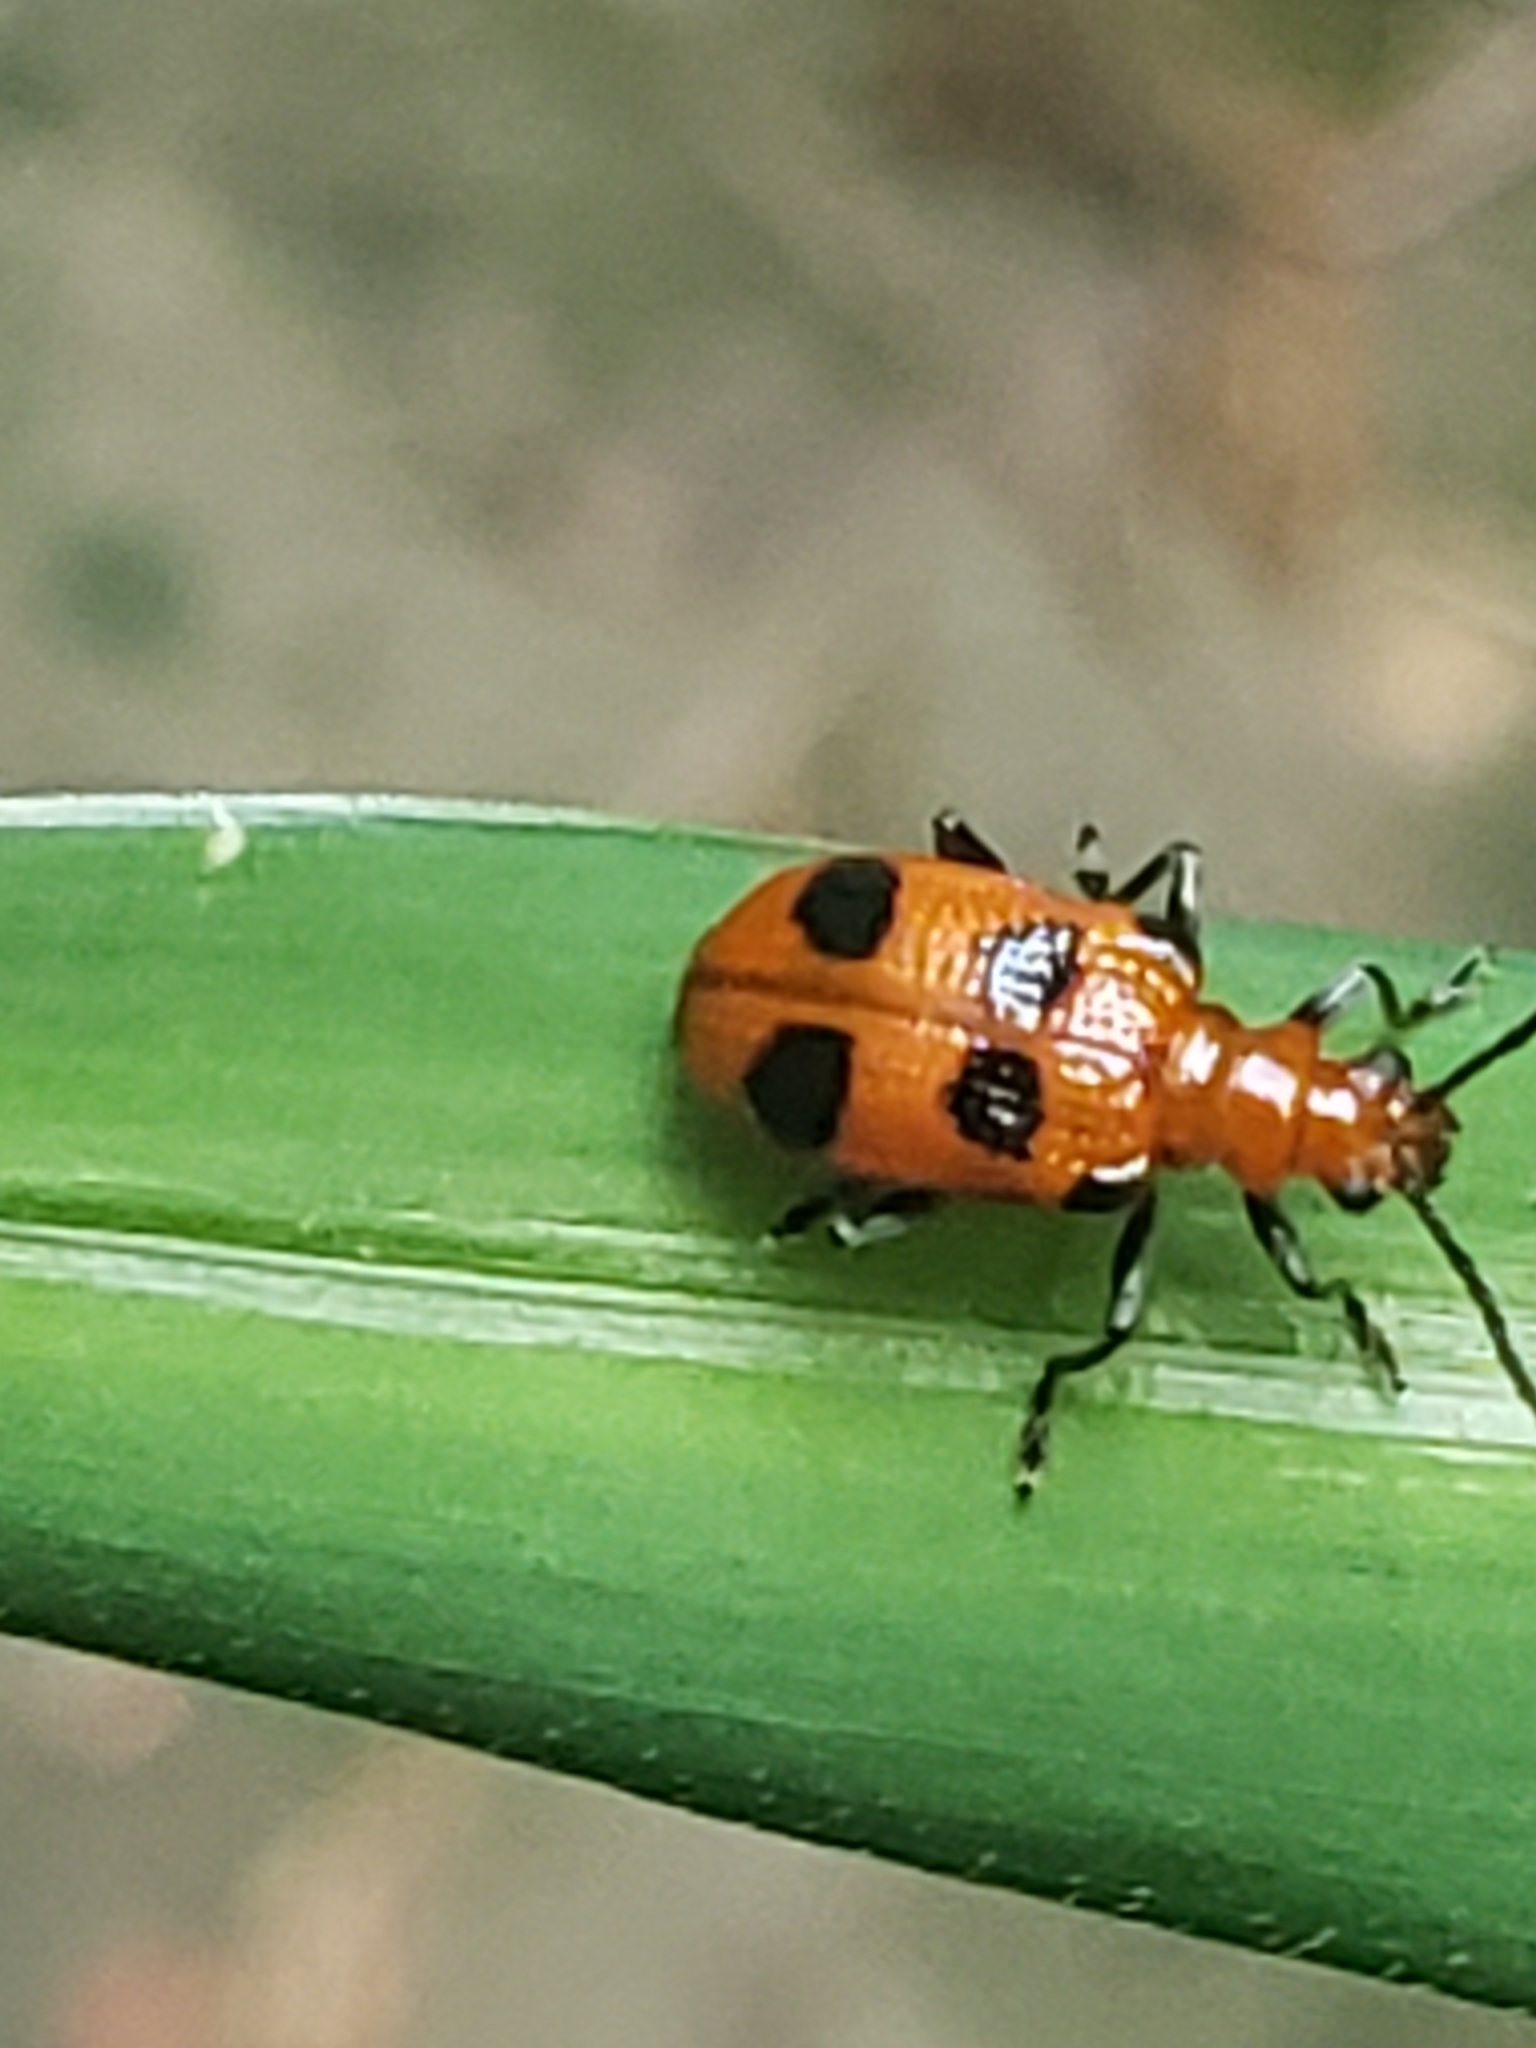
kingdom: Animalia
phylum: Arthropoda
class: Insecta
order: Coleoptera
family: Chrysomelidae
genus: Neolema
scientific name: Neolema sexpunctata
